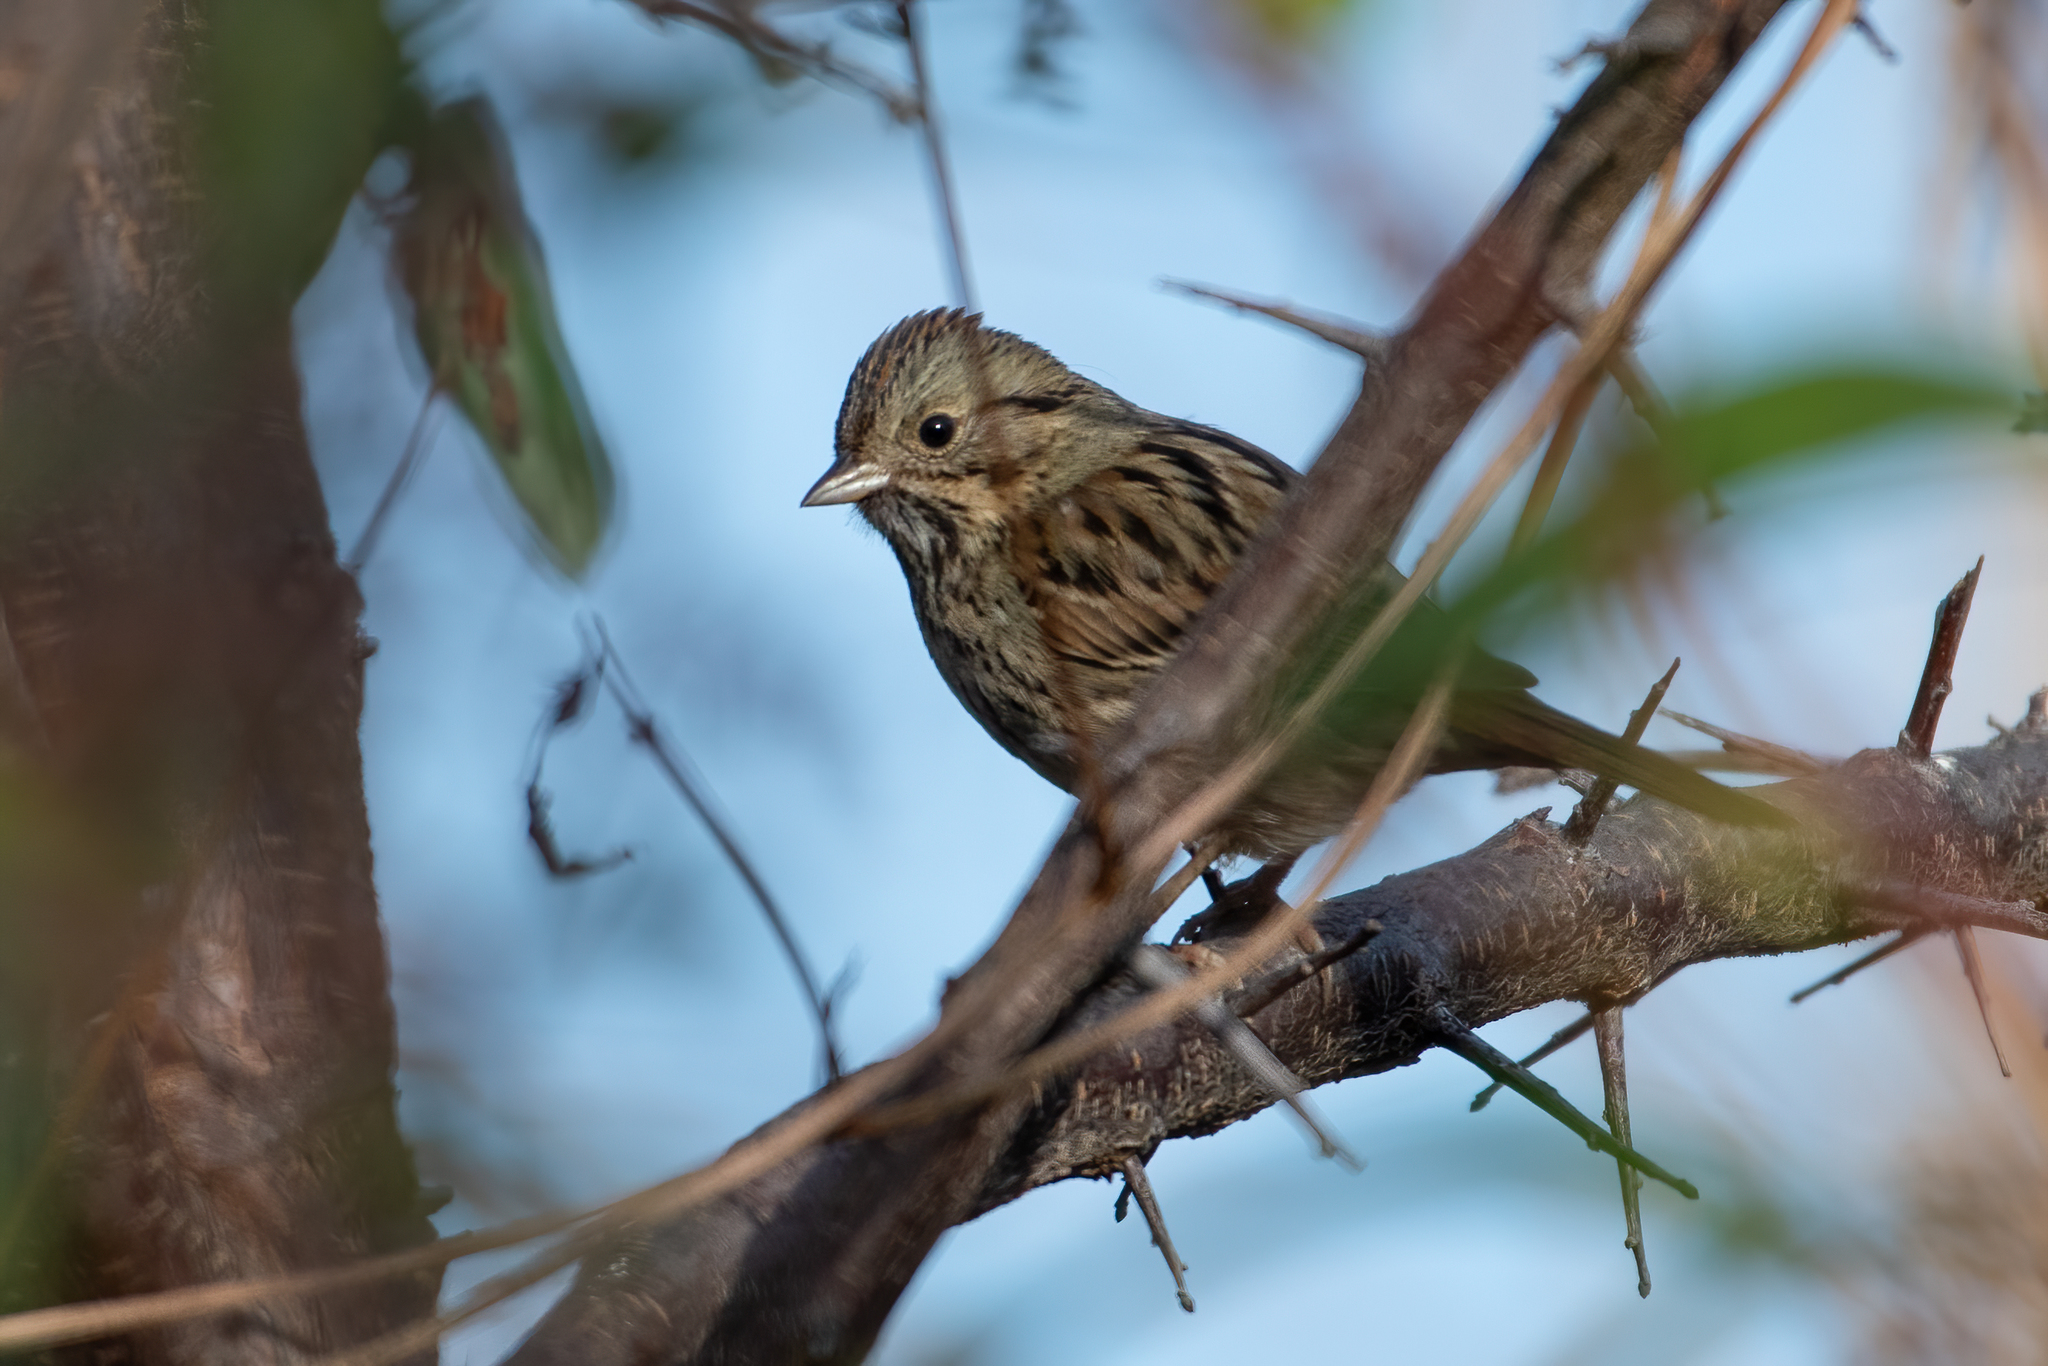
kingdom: Animalia
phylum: Chordata
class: Aves
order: Passeriformes
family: Passerellidae
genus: Melospiza
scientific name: Melospiza lincolnii
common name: Lincoln's sparrow
